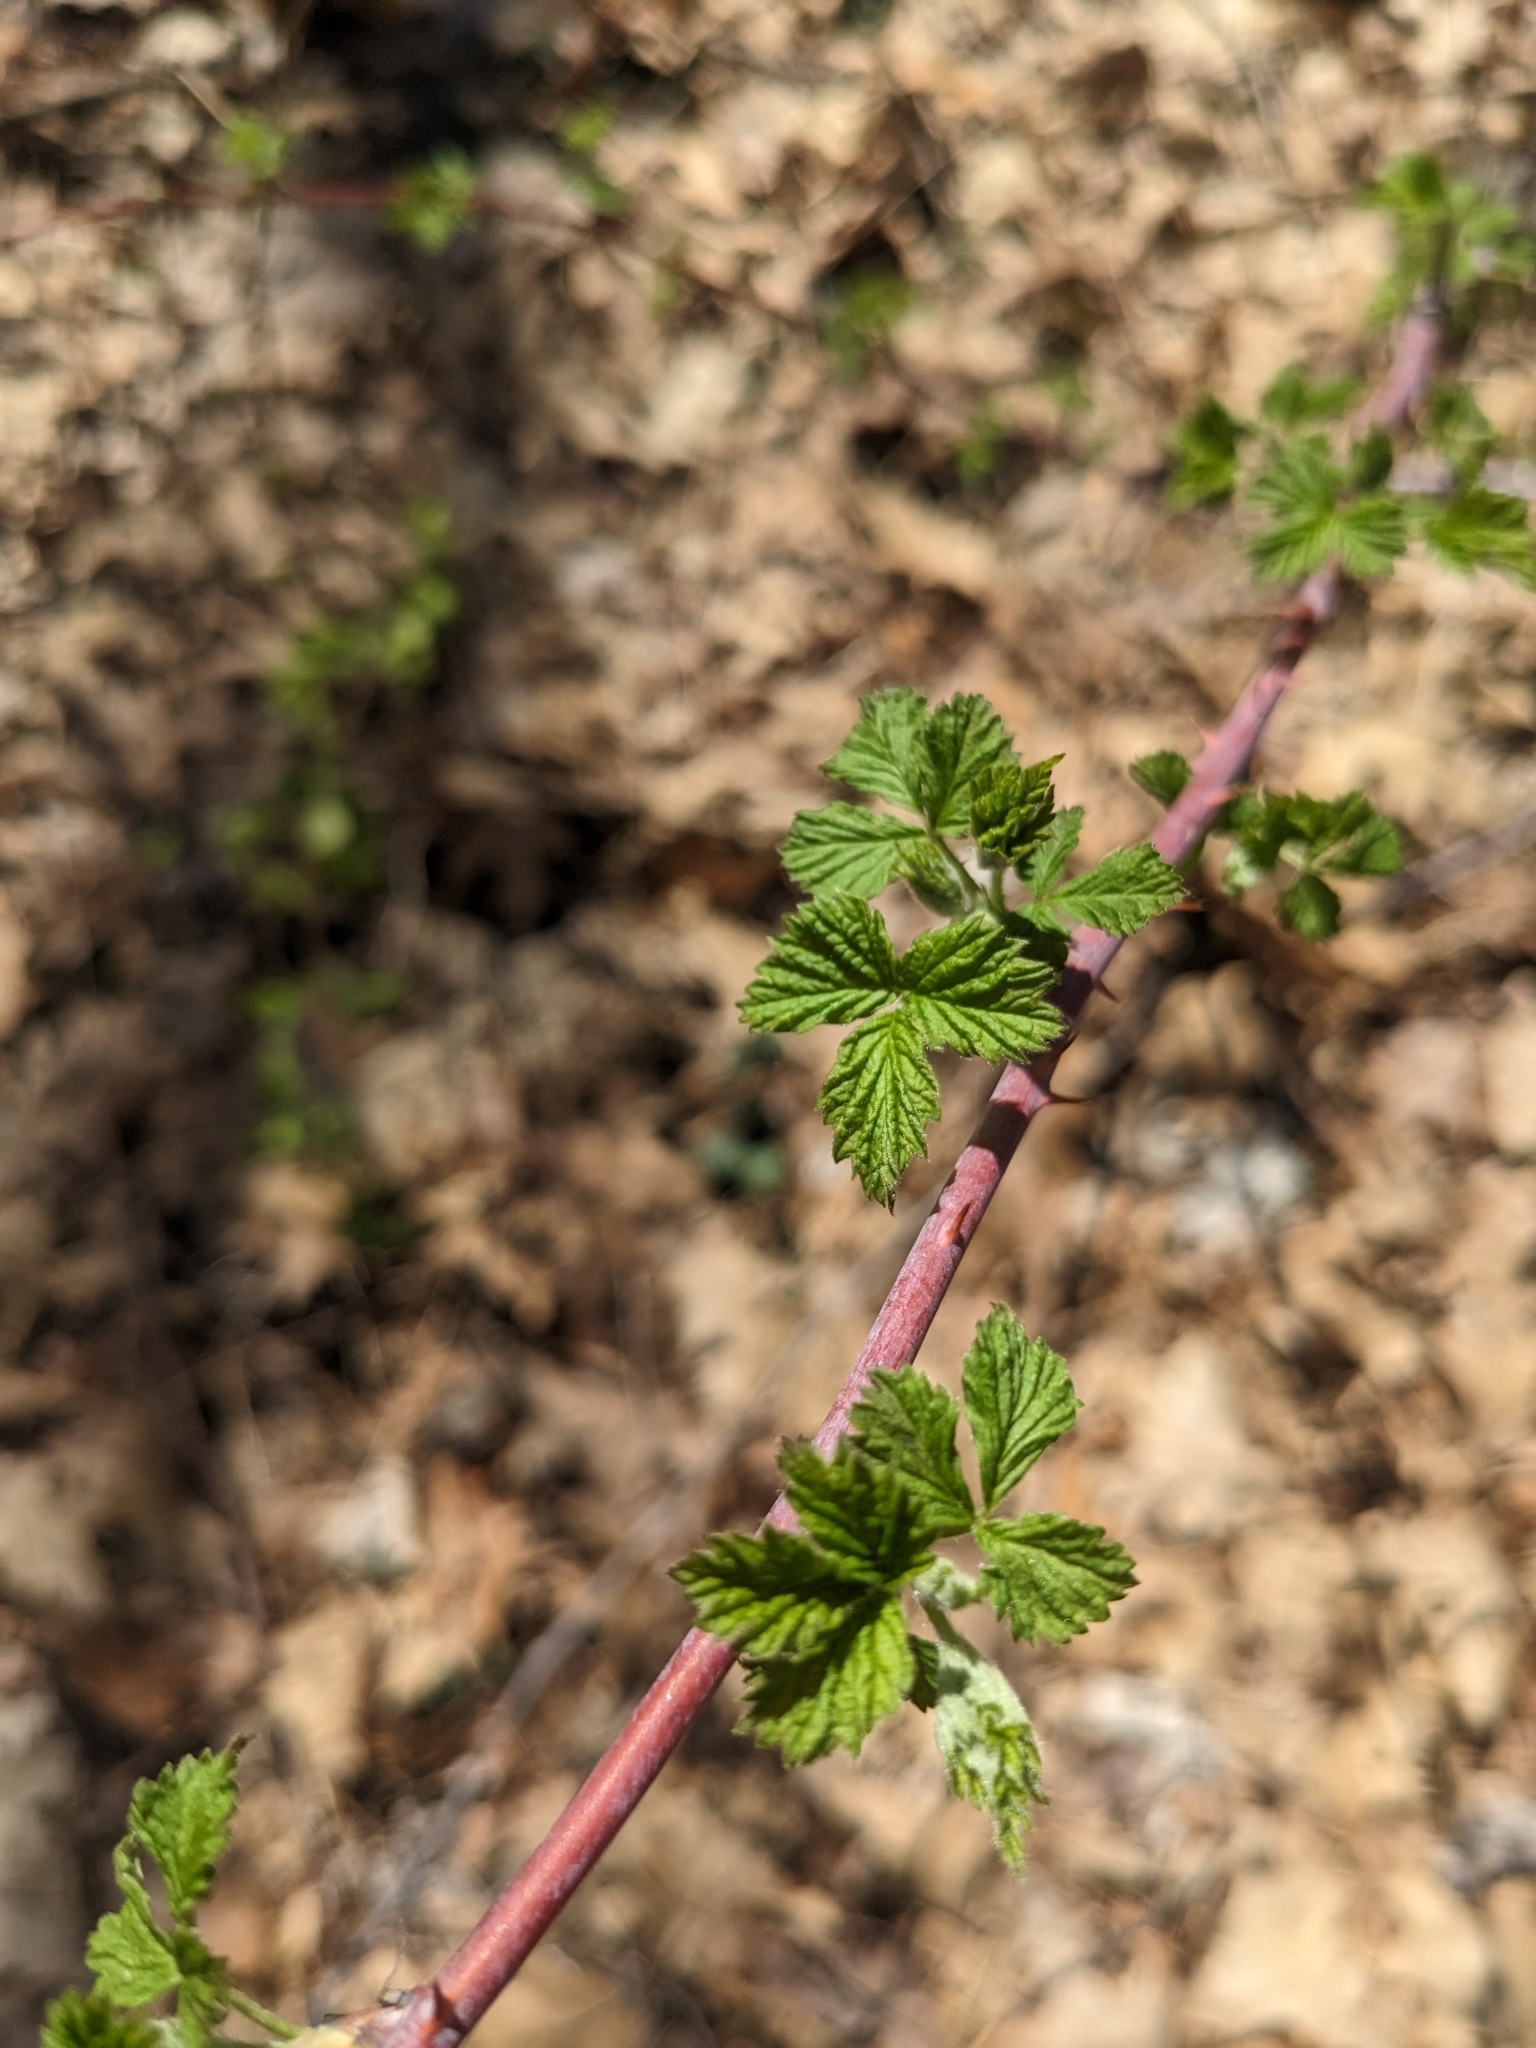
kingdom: Plantae
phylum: Tracheophyta
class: Magnoliopsida
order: Rosales
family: Rosaceae
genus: Rubus
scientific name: Rubus occidentalis
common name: Black raspberry
